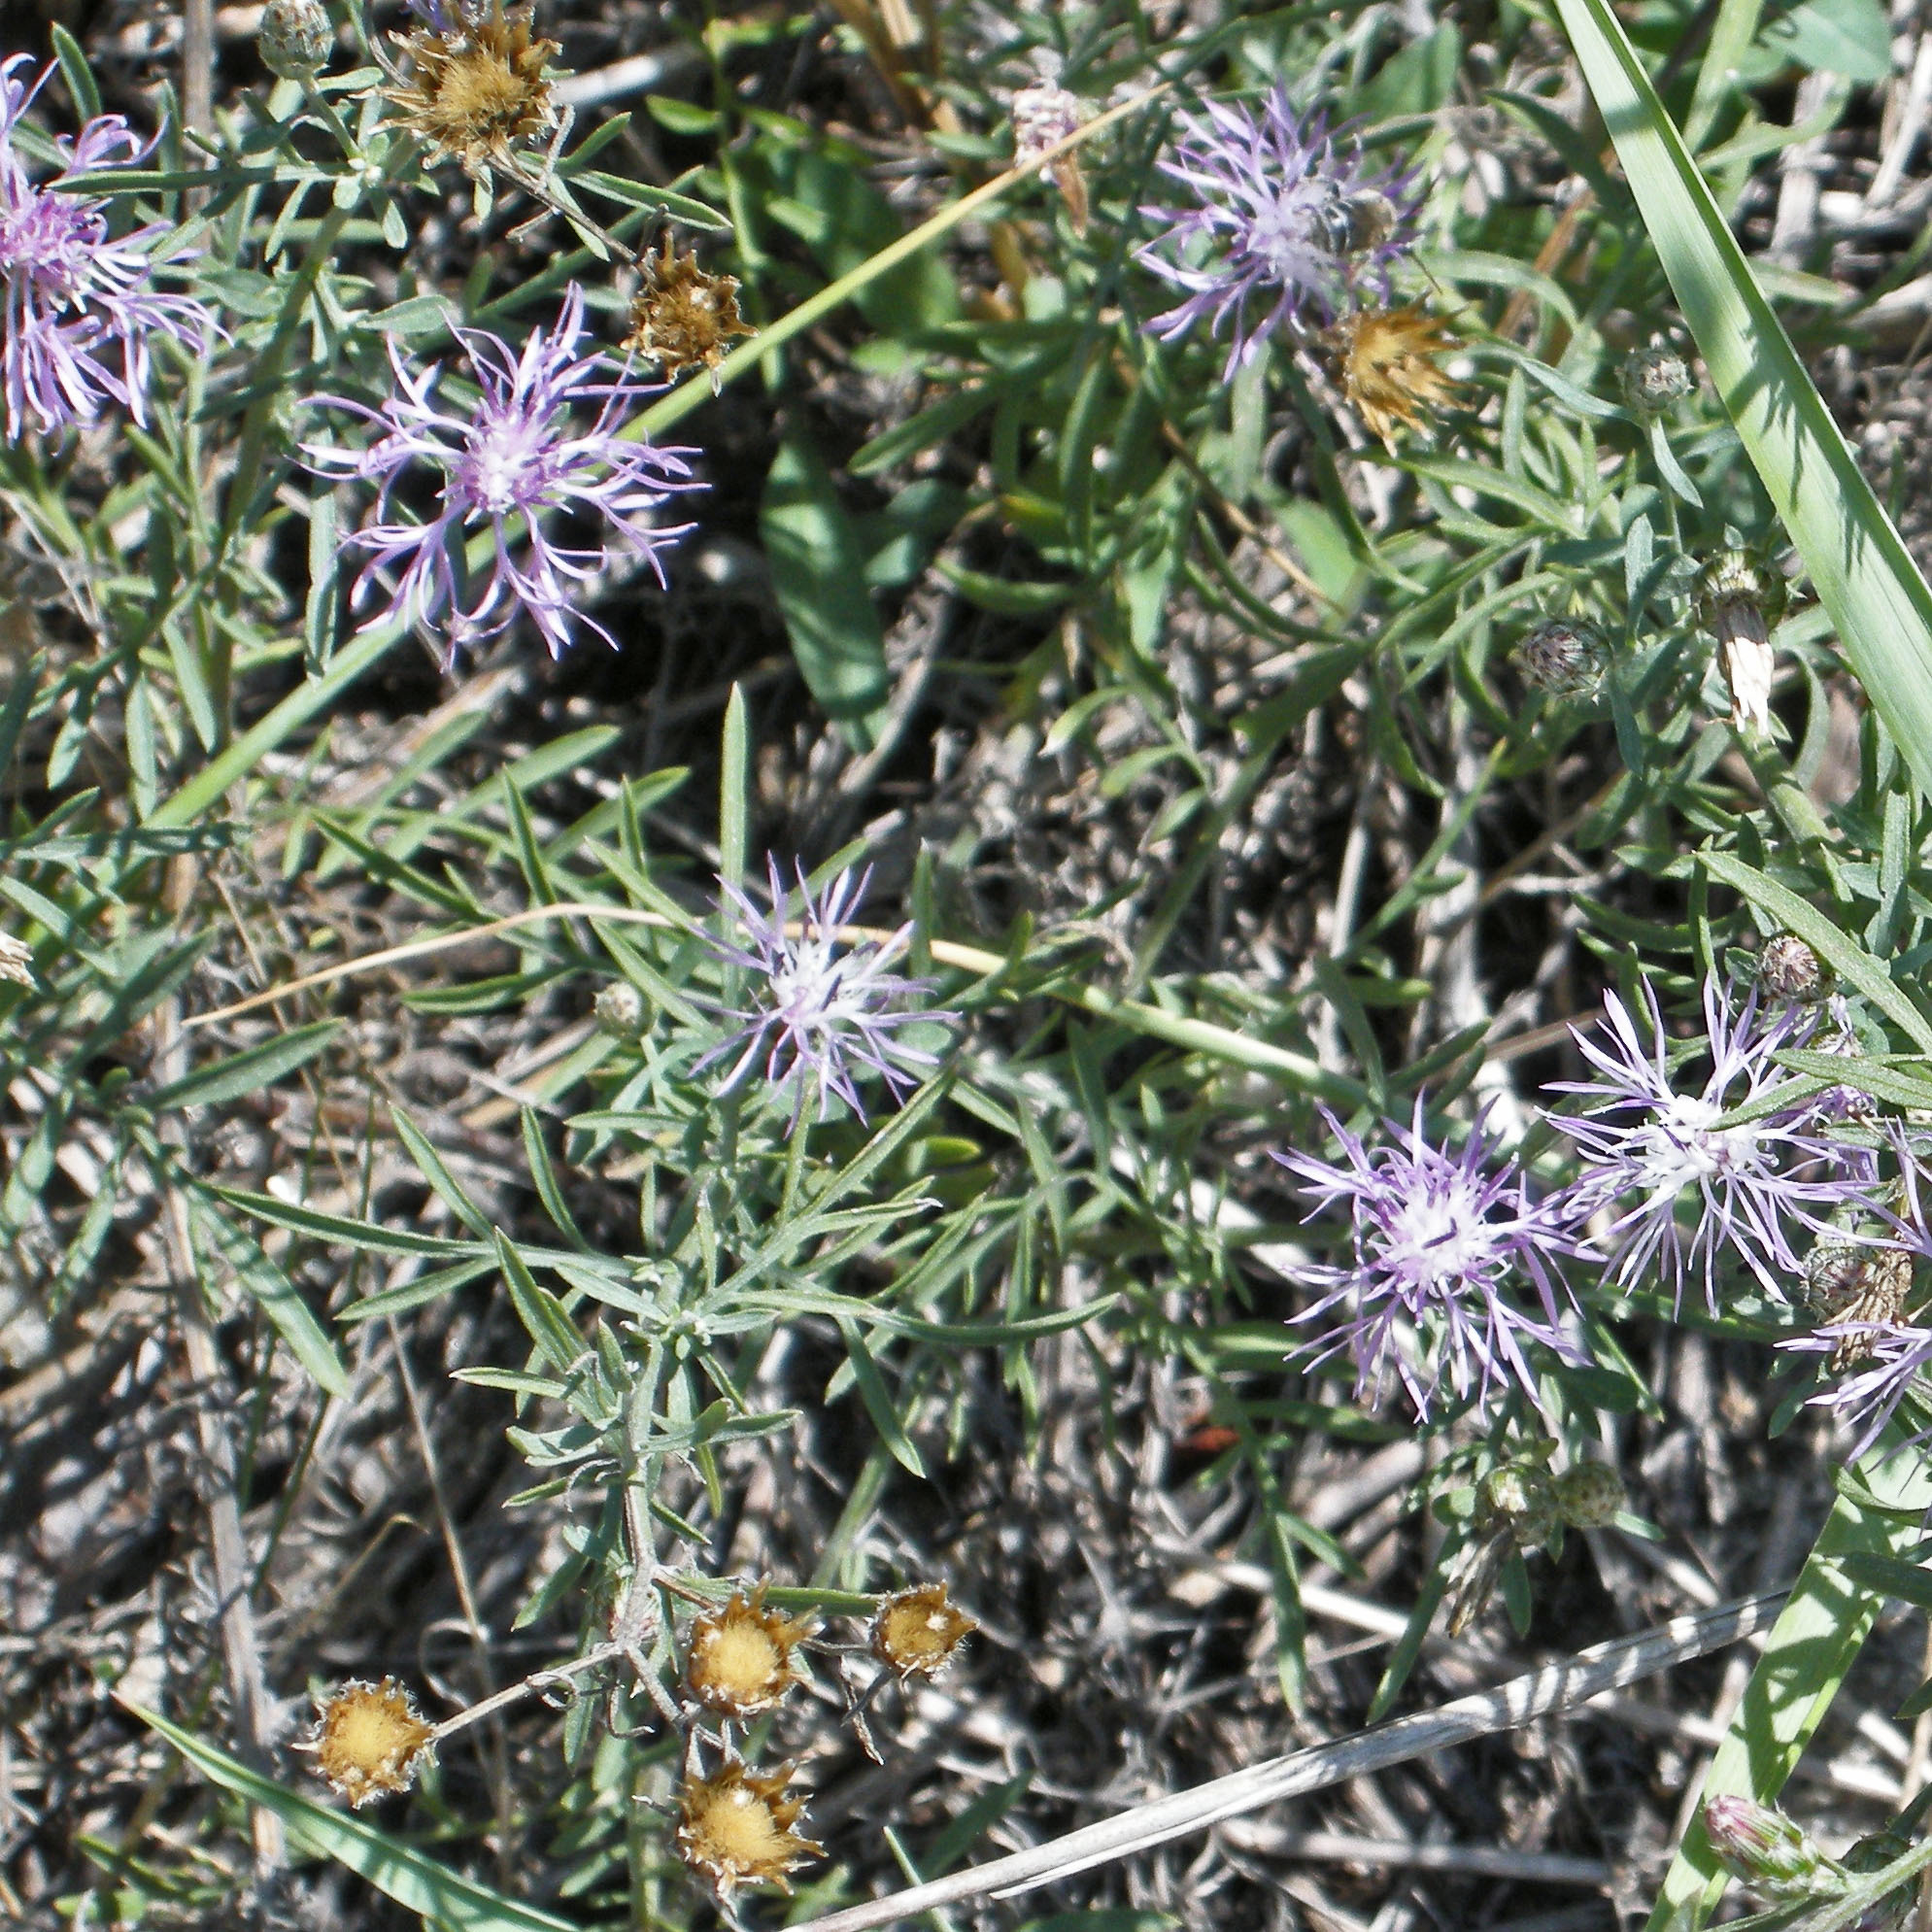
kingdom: Plantae
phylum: Tracheophyta
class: Magnoliopsida
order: Asterales
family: Asteraceae
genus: Centaurea
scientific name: Centaurea stoebe
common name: Spotted knapweed
